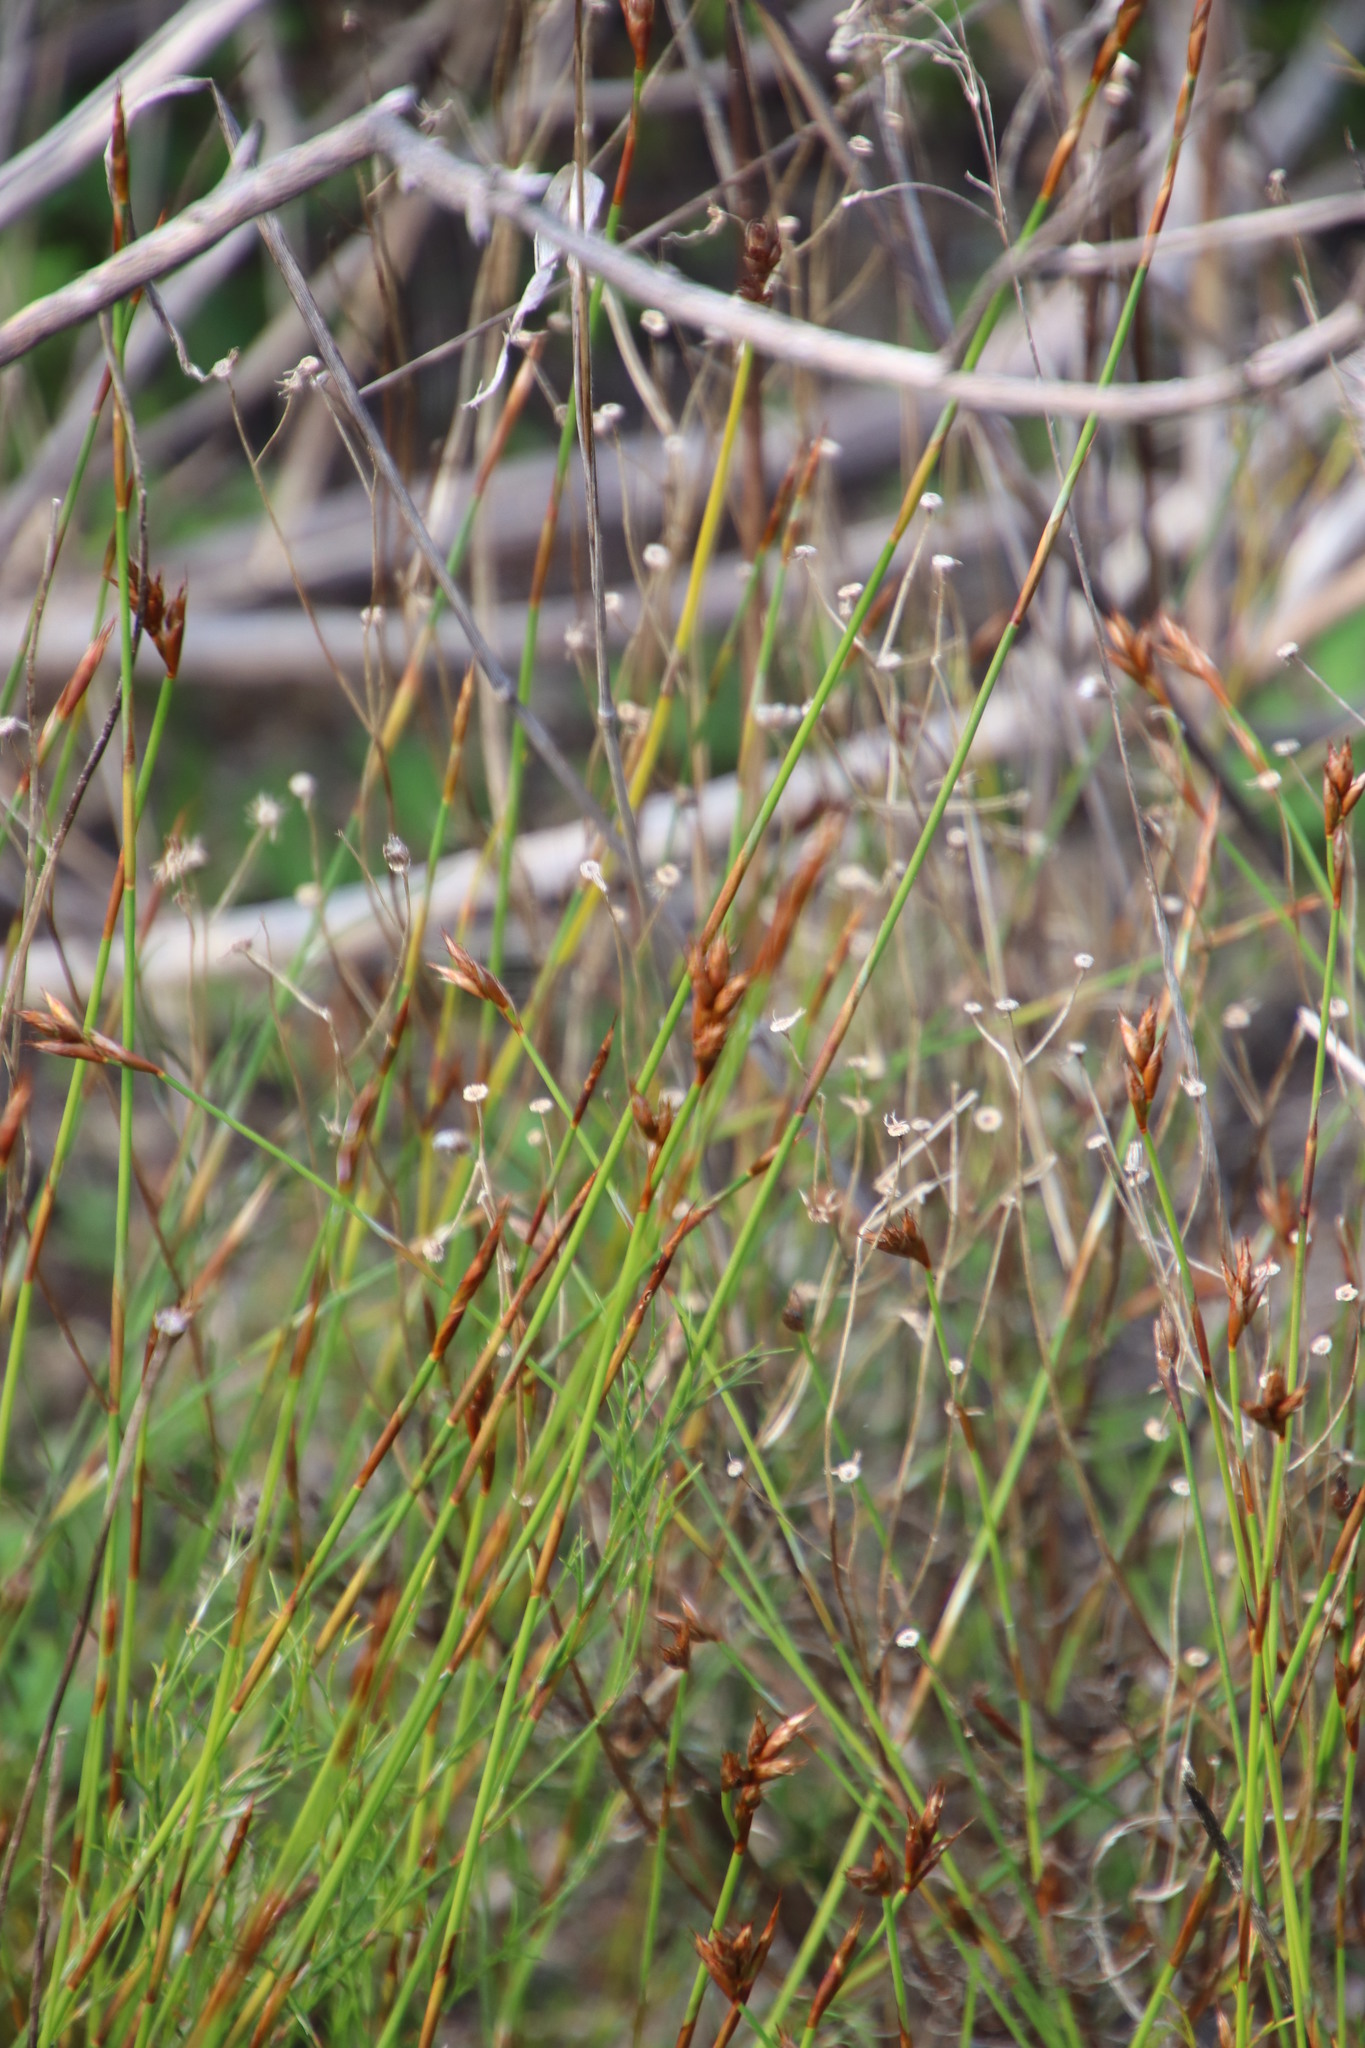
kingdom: Plantae
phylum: Tracheophyta
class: Liliopsida
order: Poales
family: Restionaceae
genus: Restio
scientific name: Restio capensis
